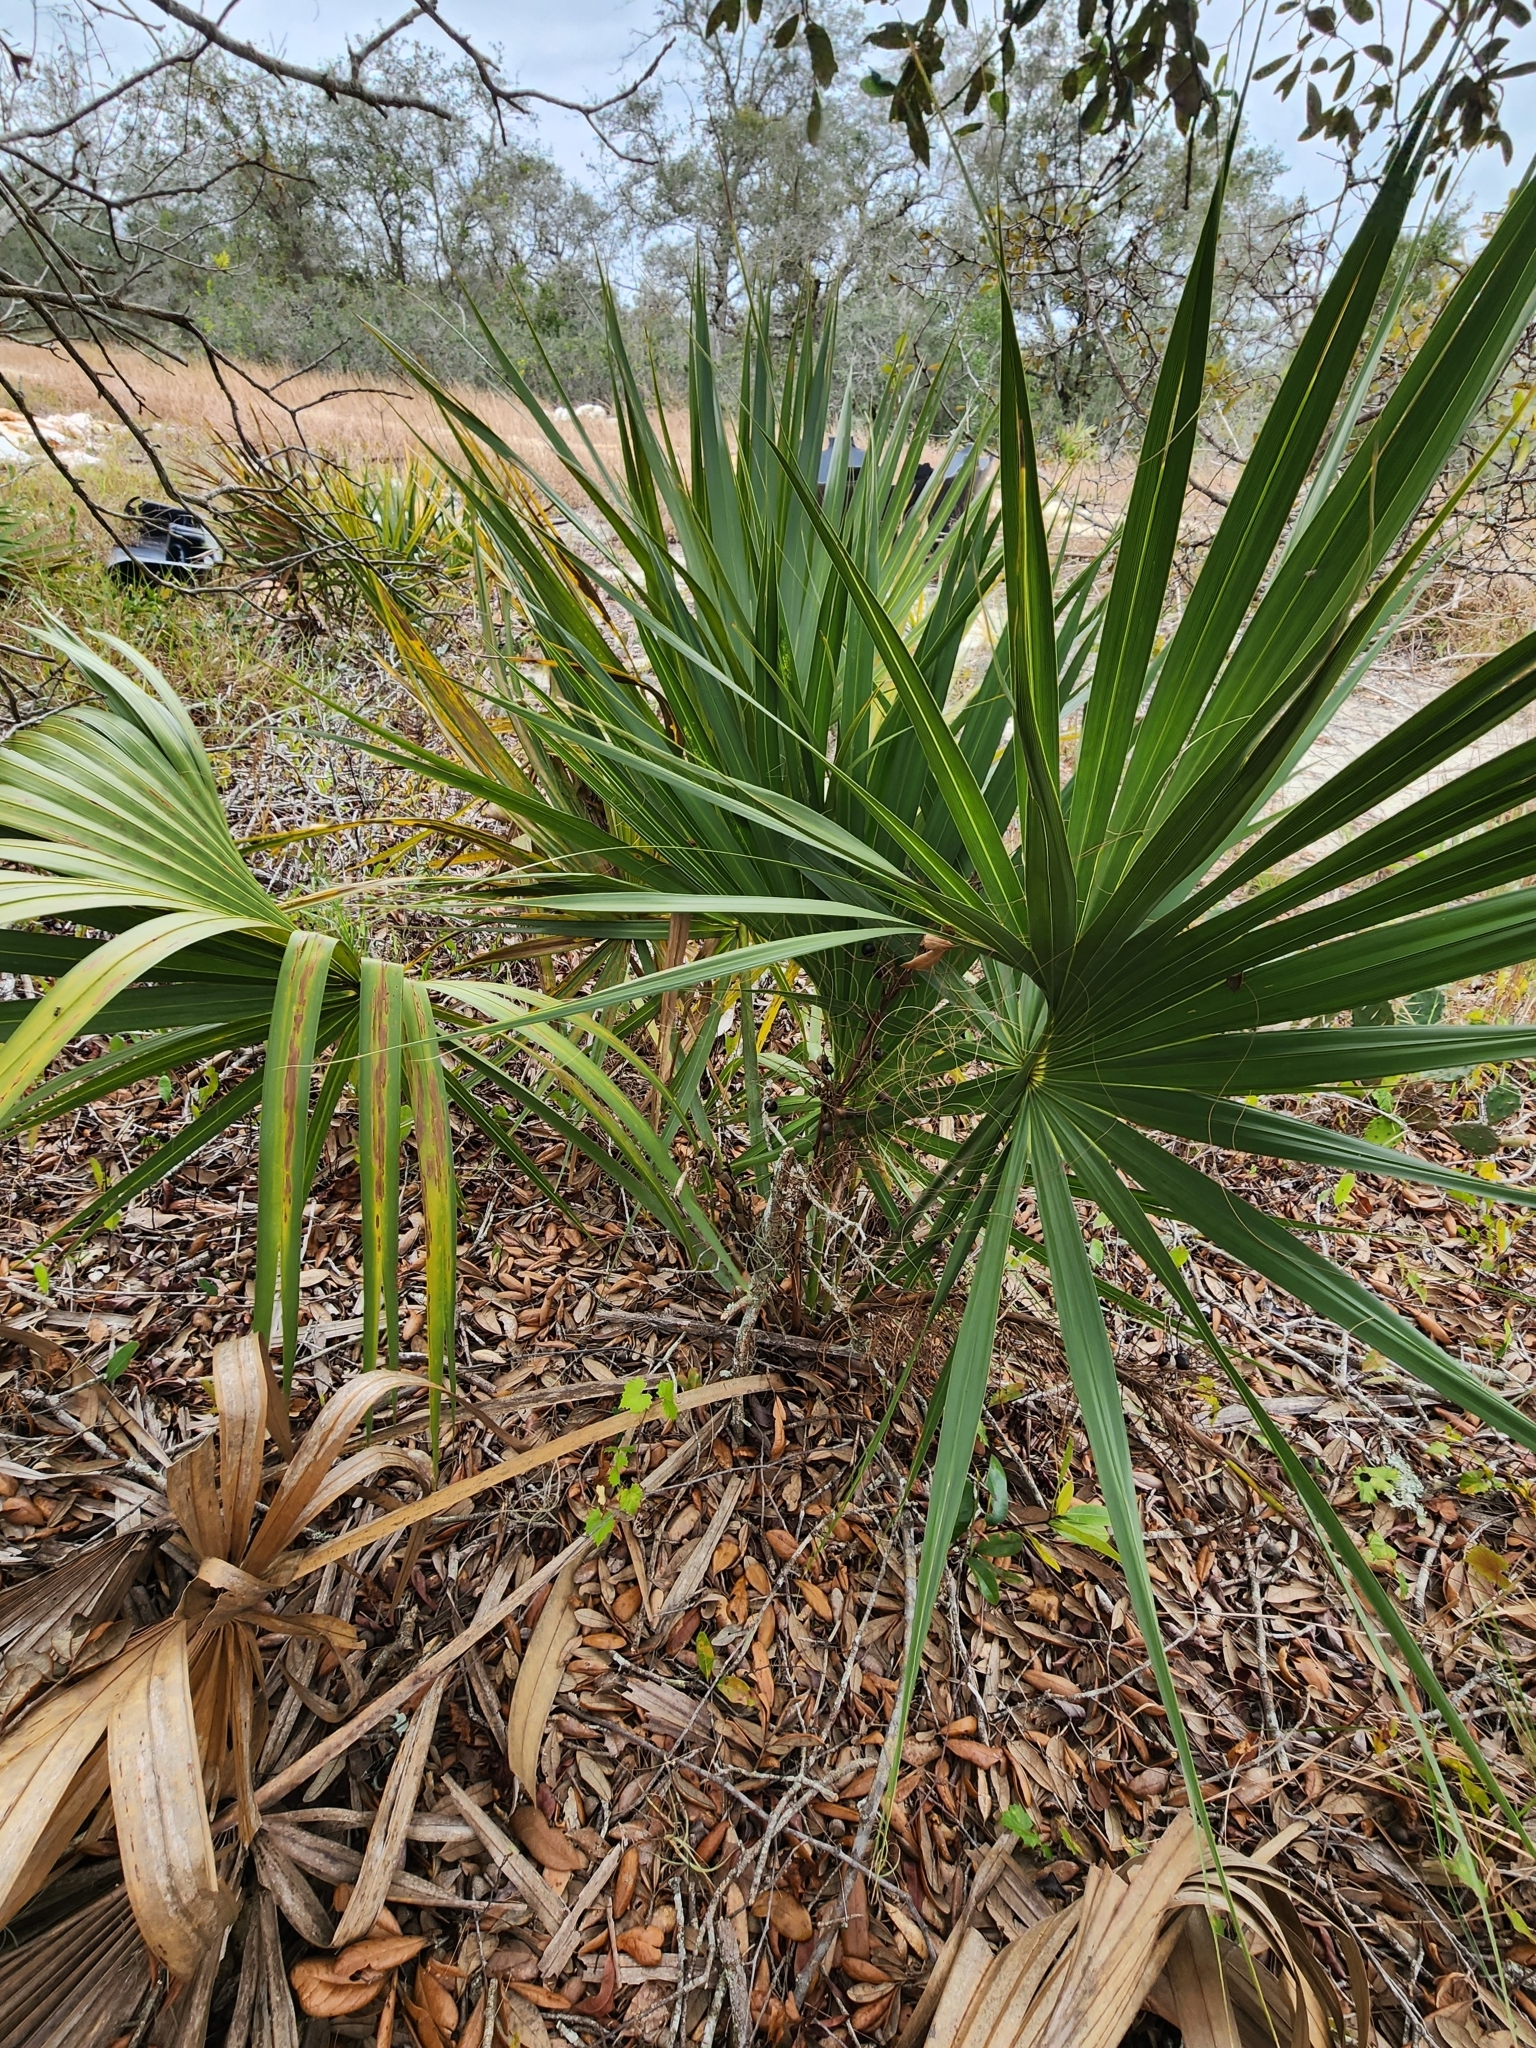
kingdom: Plantae
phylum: Tracheophyta
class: Liliopsida
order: Arecales
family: Arecaceae
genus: Sabal
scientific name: Sabal etonia
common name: Dwarf palmetto
